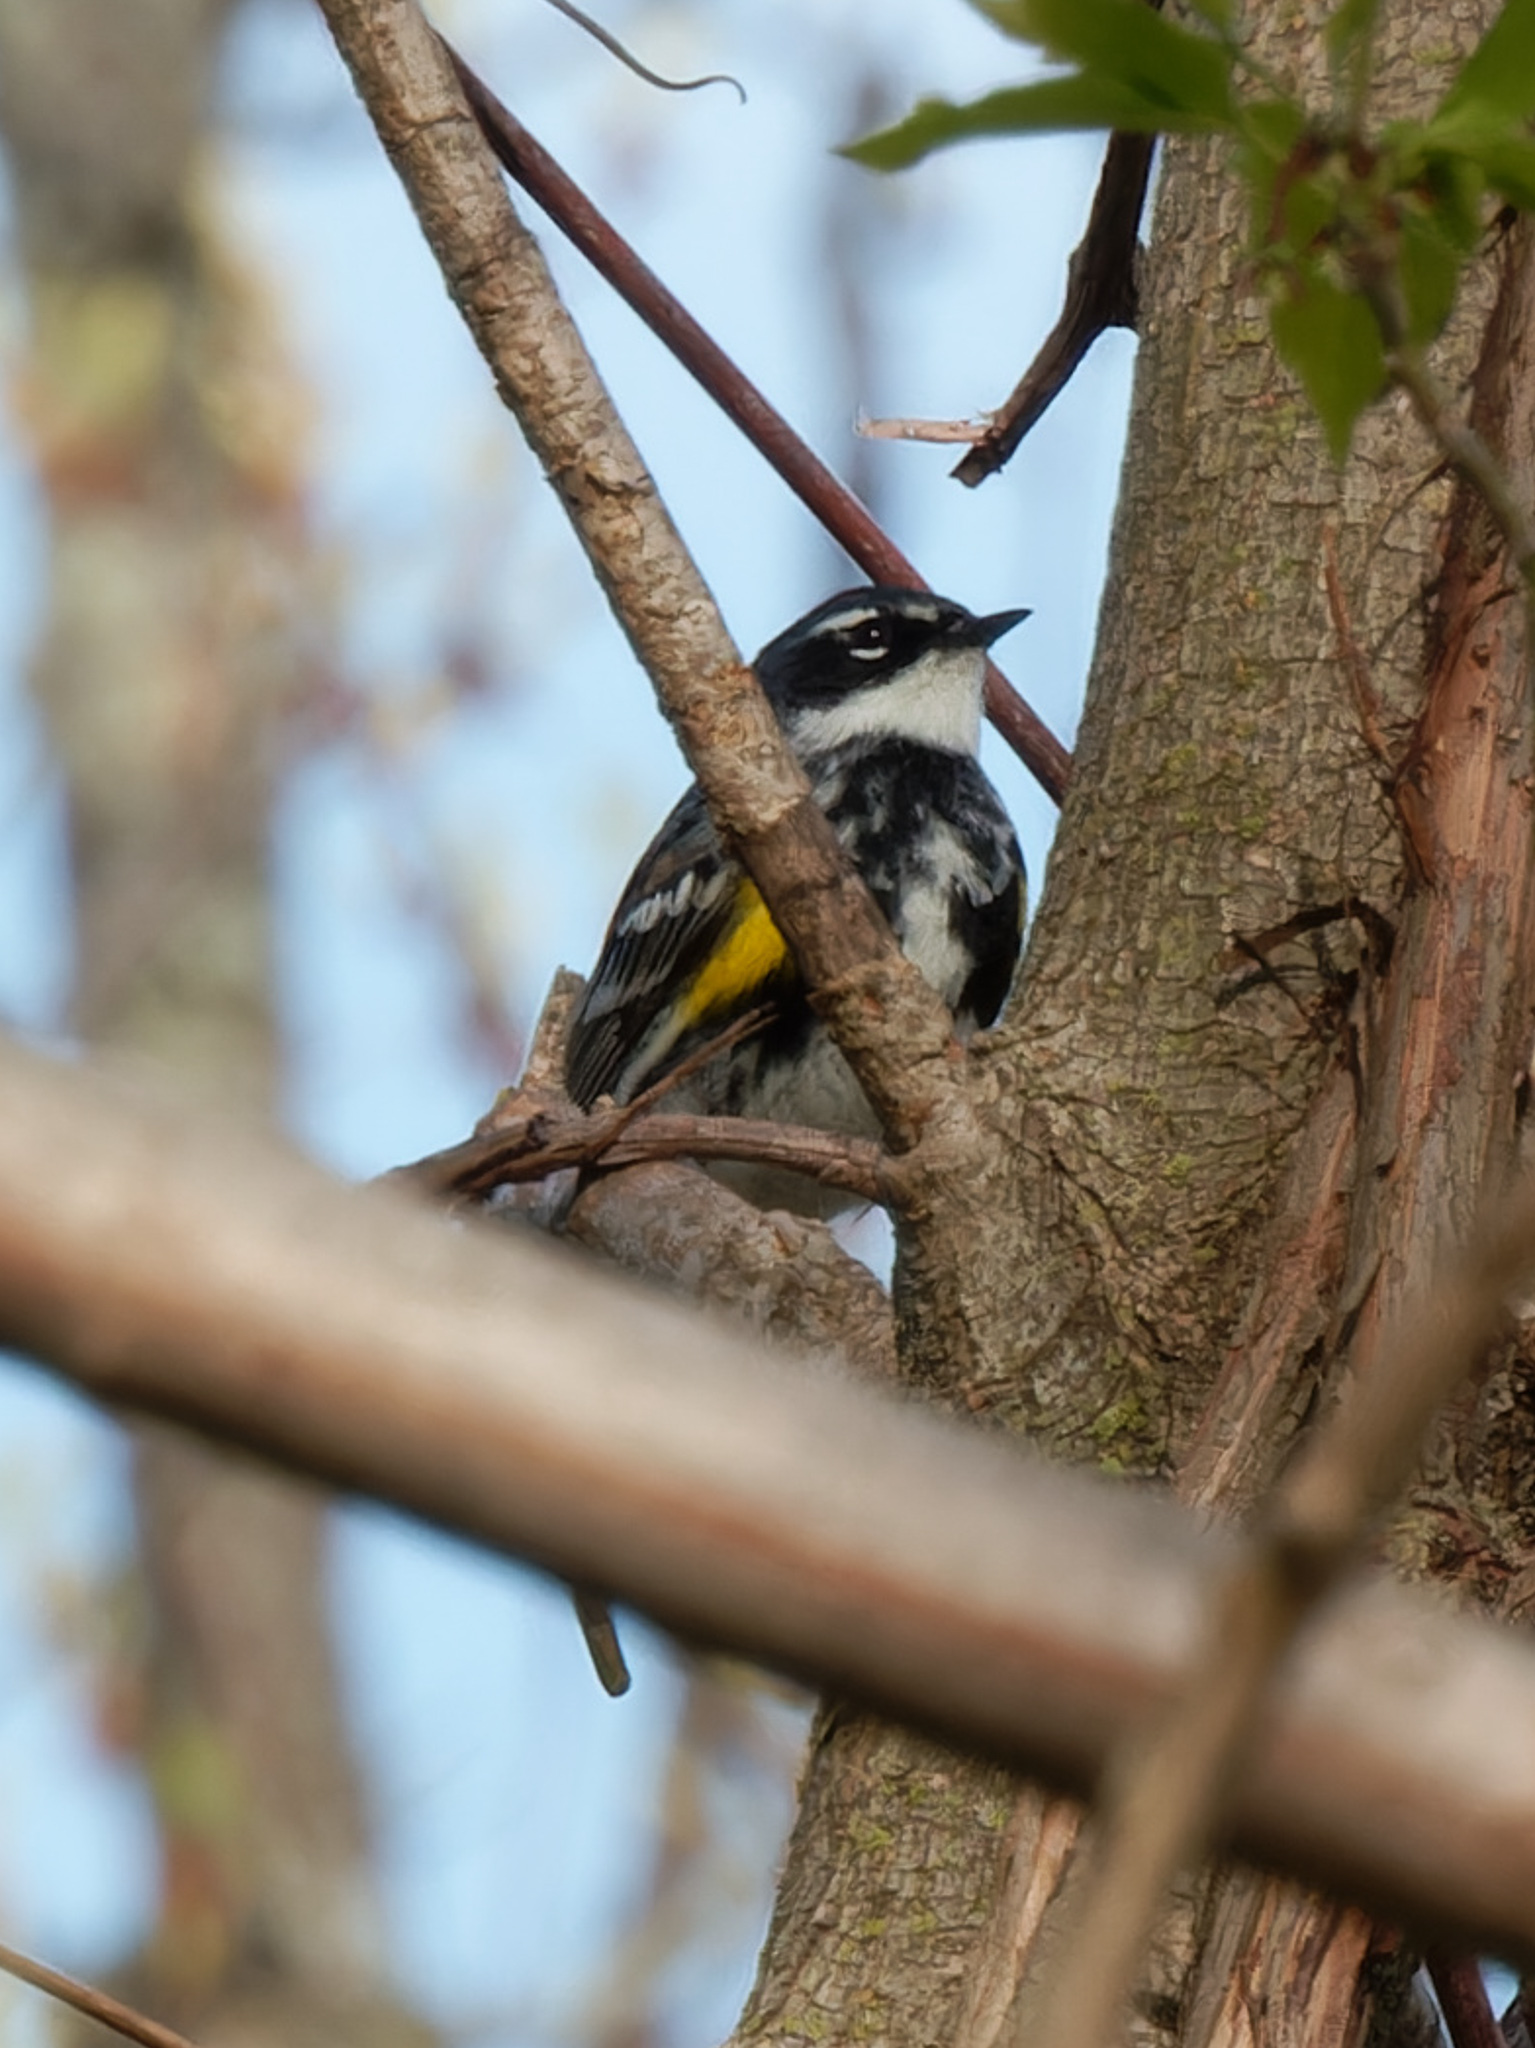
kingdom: Animalia
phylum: Chordata
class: Aves
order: Passeriformes
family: Parulidae
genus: Setophaga
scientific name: Setophaga coronata
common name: Myrtle warbler
